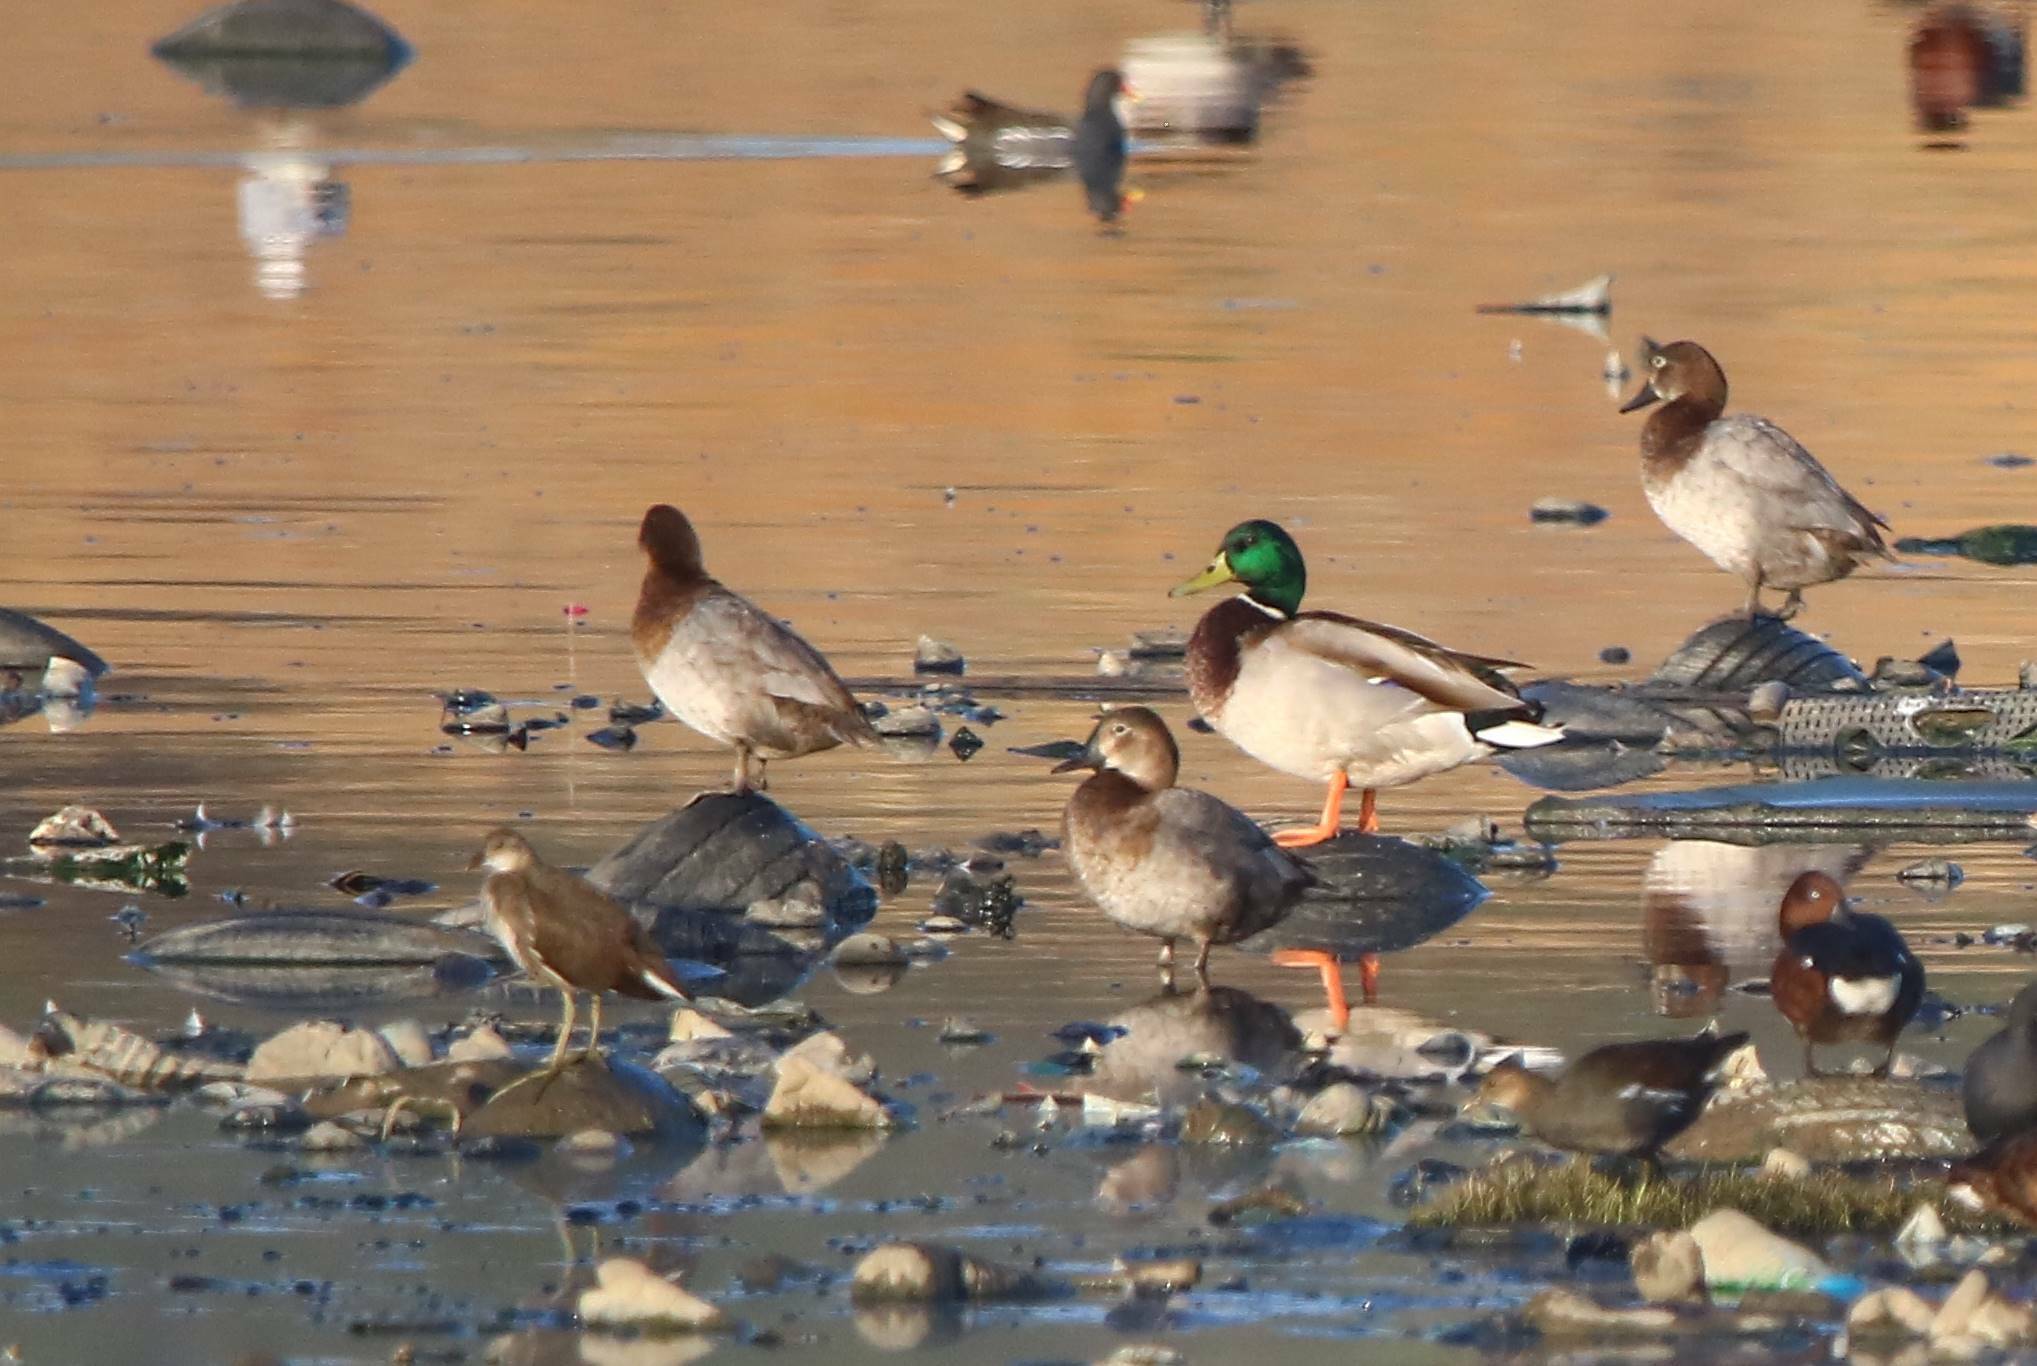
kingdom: Animalia
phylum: Chordata
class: Aves
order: Anseriformes
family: Anatidae
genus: Aythya
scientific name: Aythya ferina
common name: Common pochard
